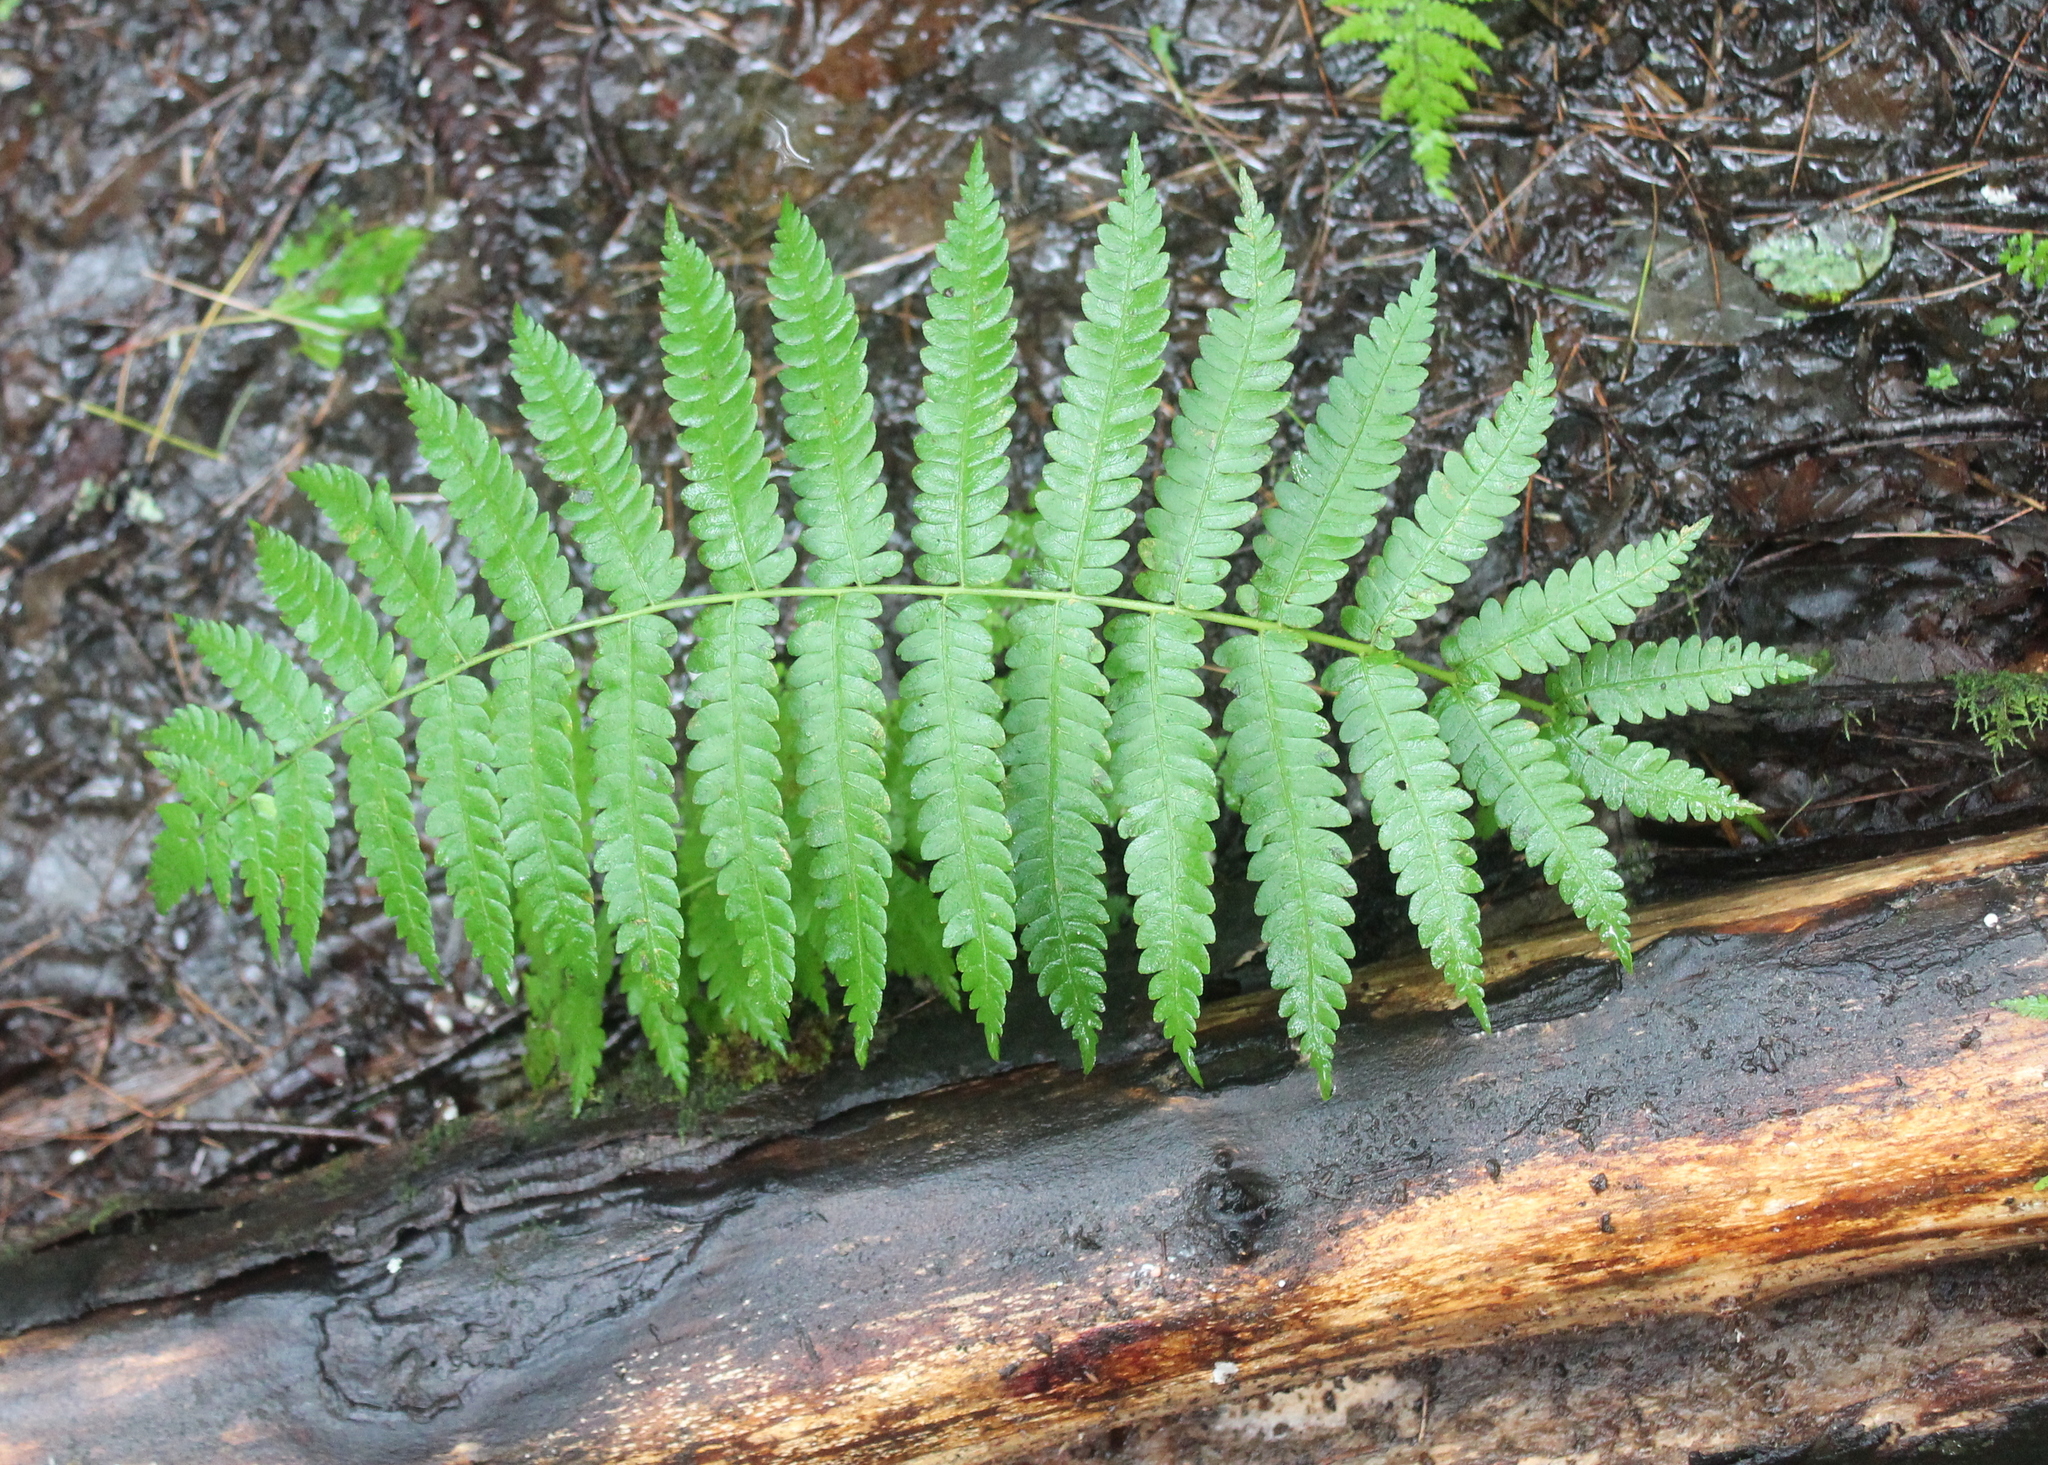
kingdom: Plantae
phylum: Tracheophyta
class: Polypodiopsida
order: Osmundales
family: Osmundaceae
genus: Osmundastrum
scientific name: Osmundastrum cinnamomeum
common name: Cinnamon fern
